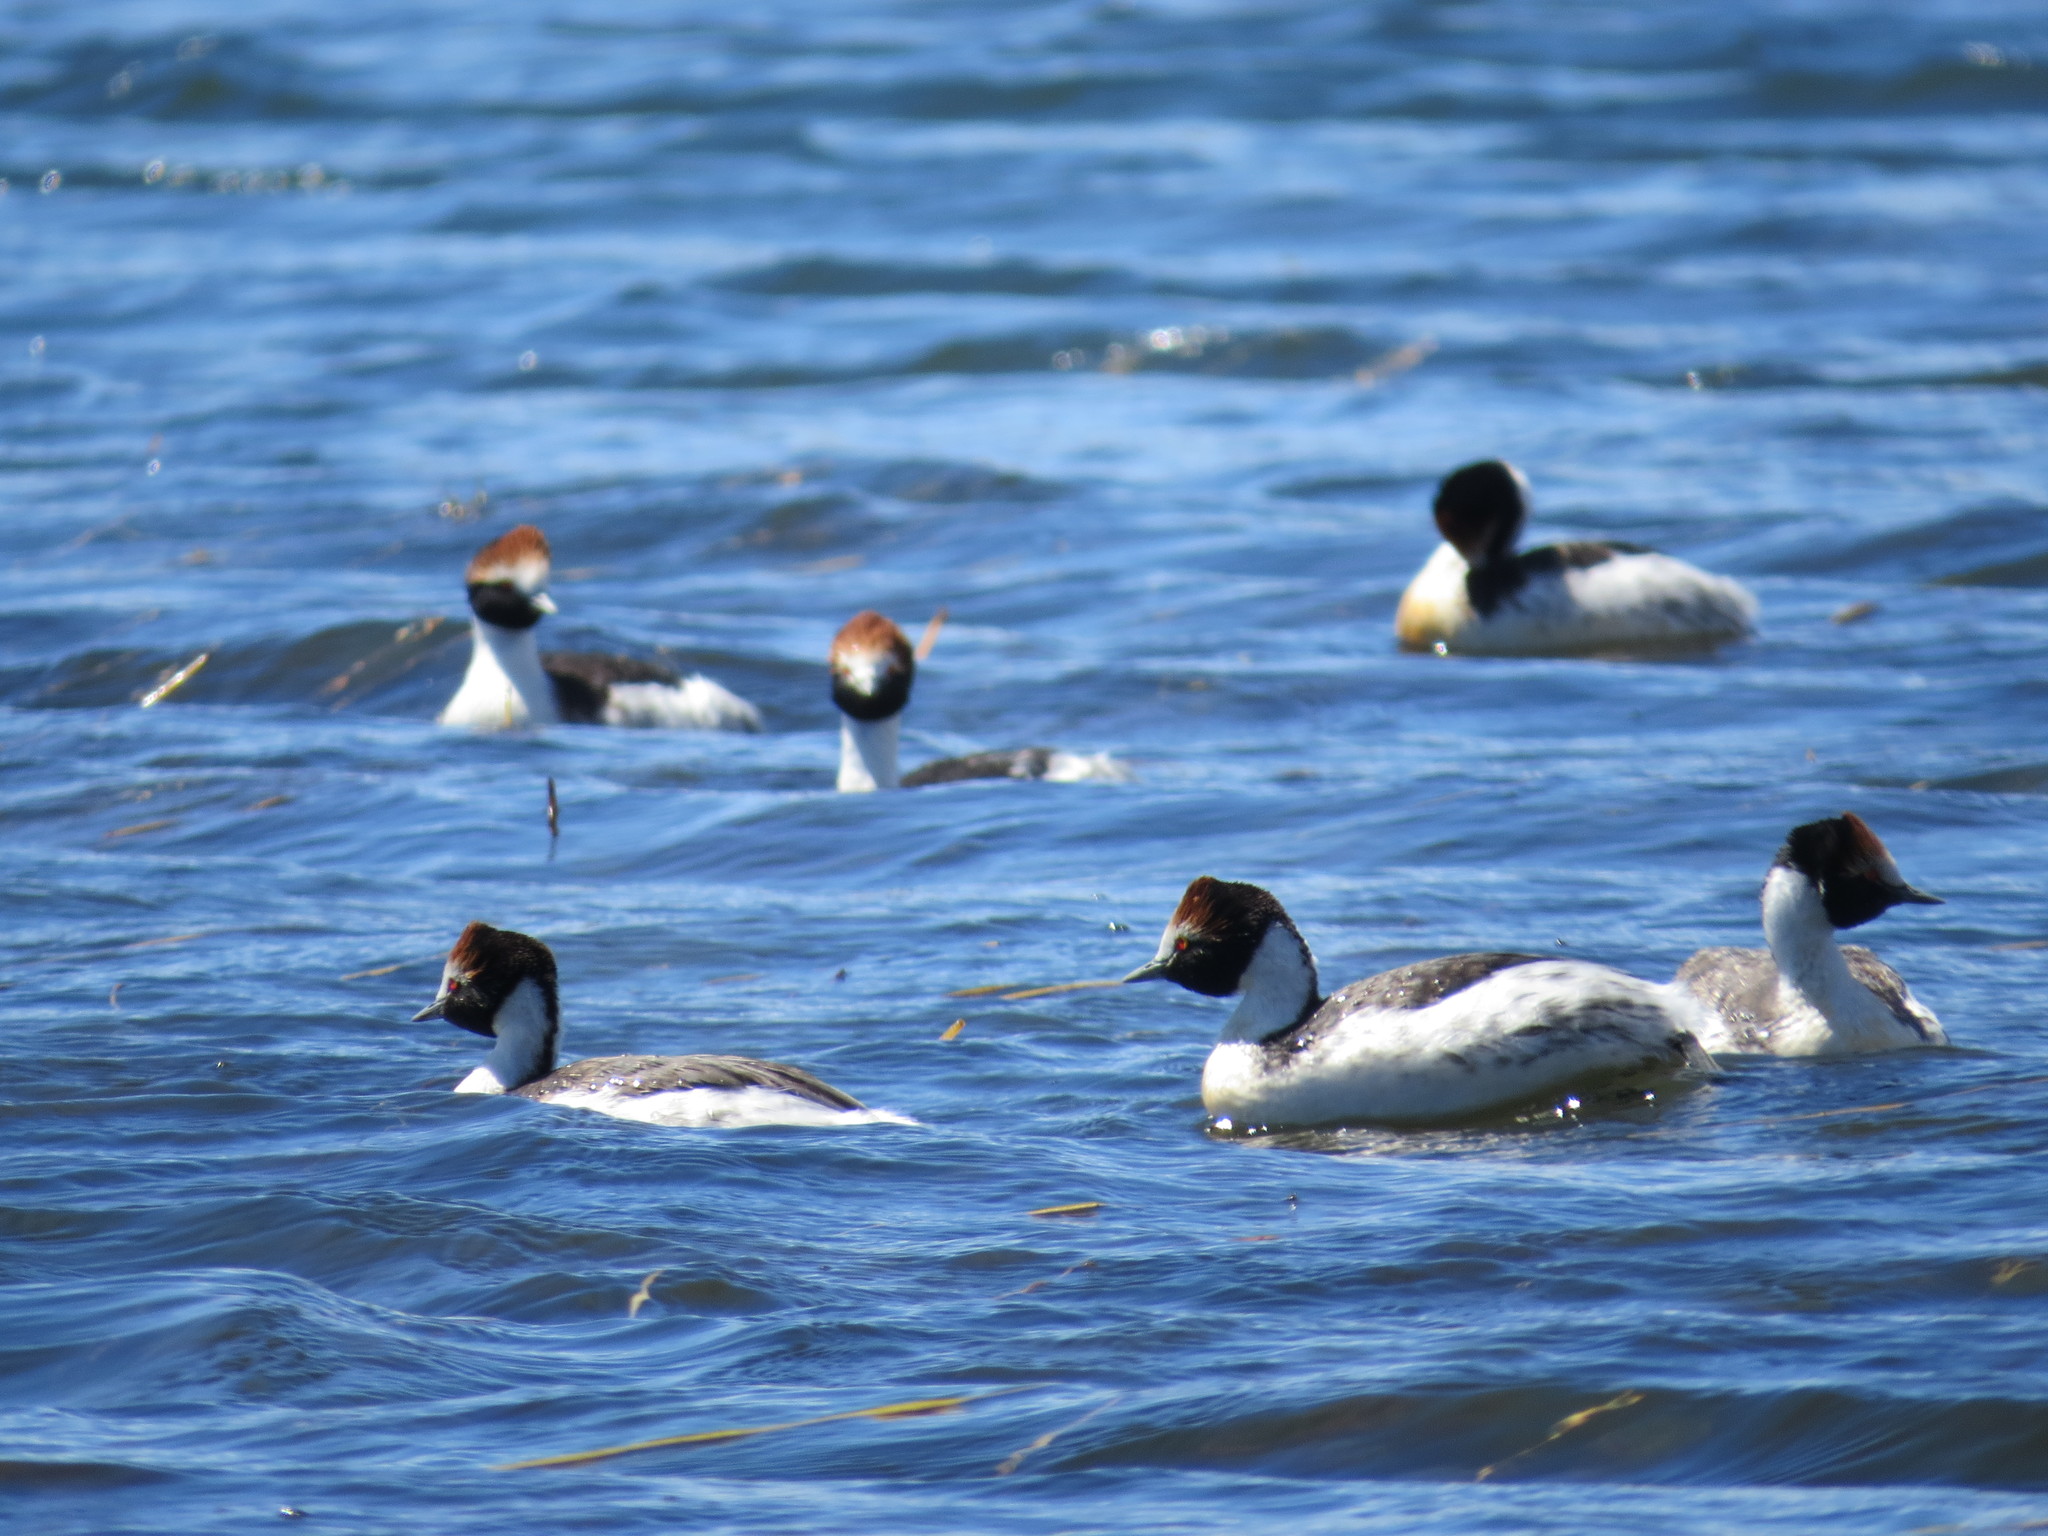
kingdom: Animalia
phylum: Chordata
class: Aves
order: Podicipediformes
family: Podicipedidae
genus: Podiceps
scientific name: Podiceps gallardoi
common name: Hooded grebe
